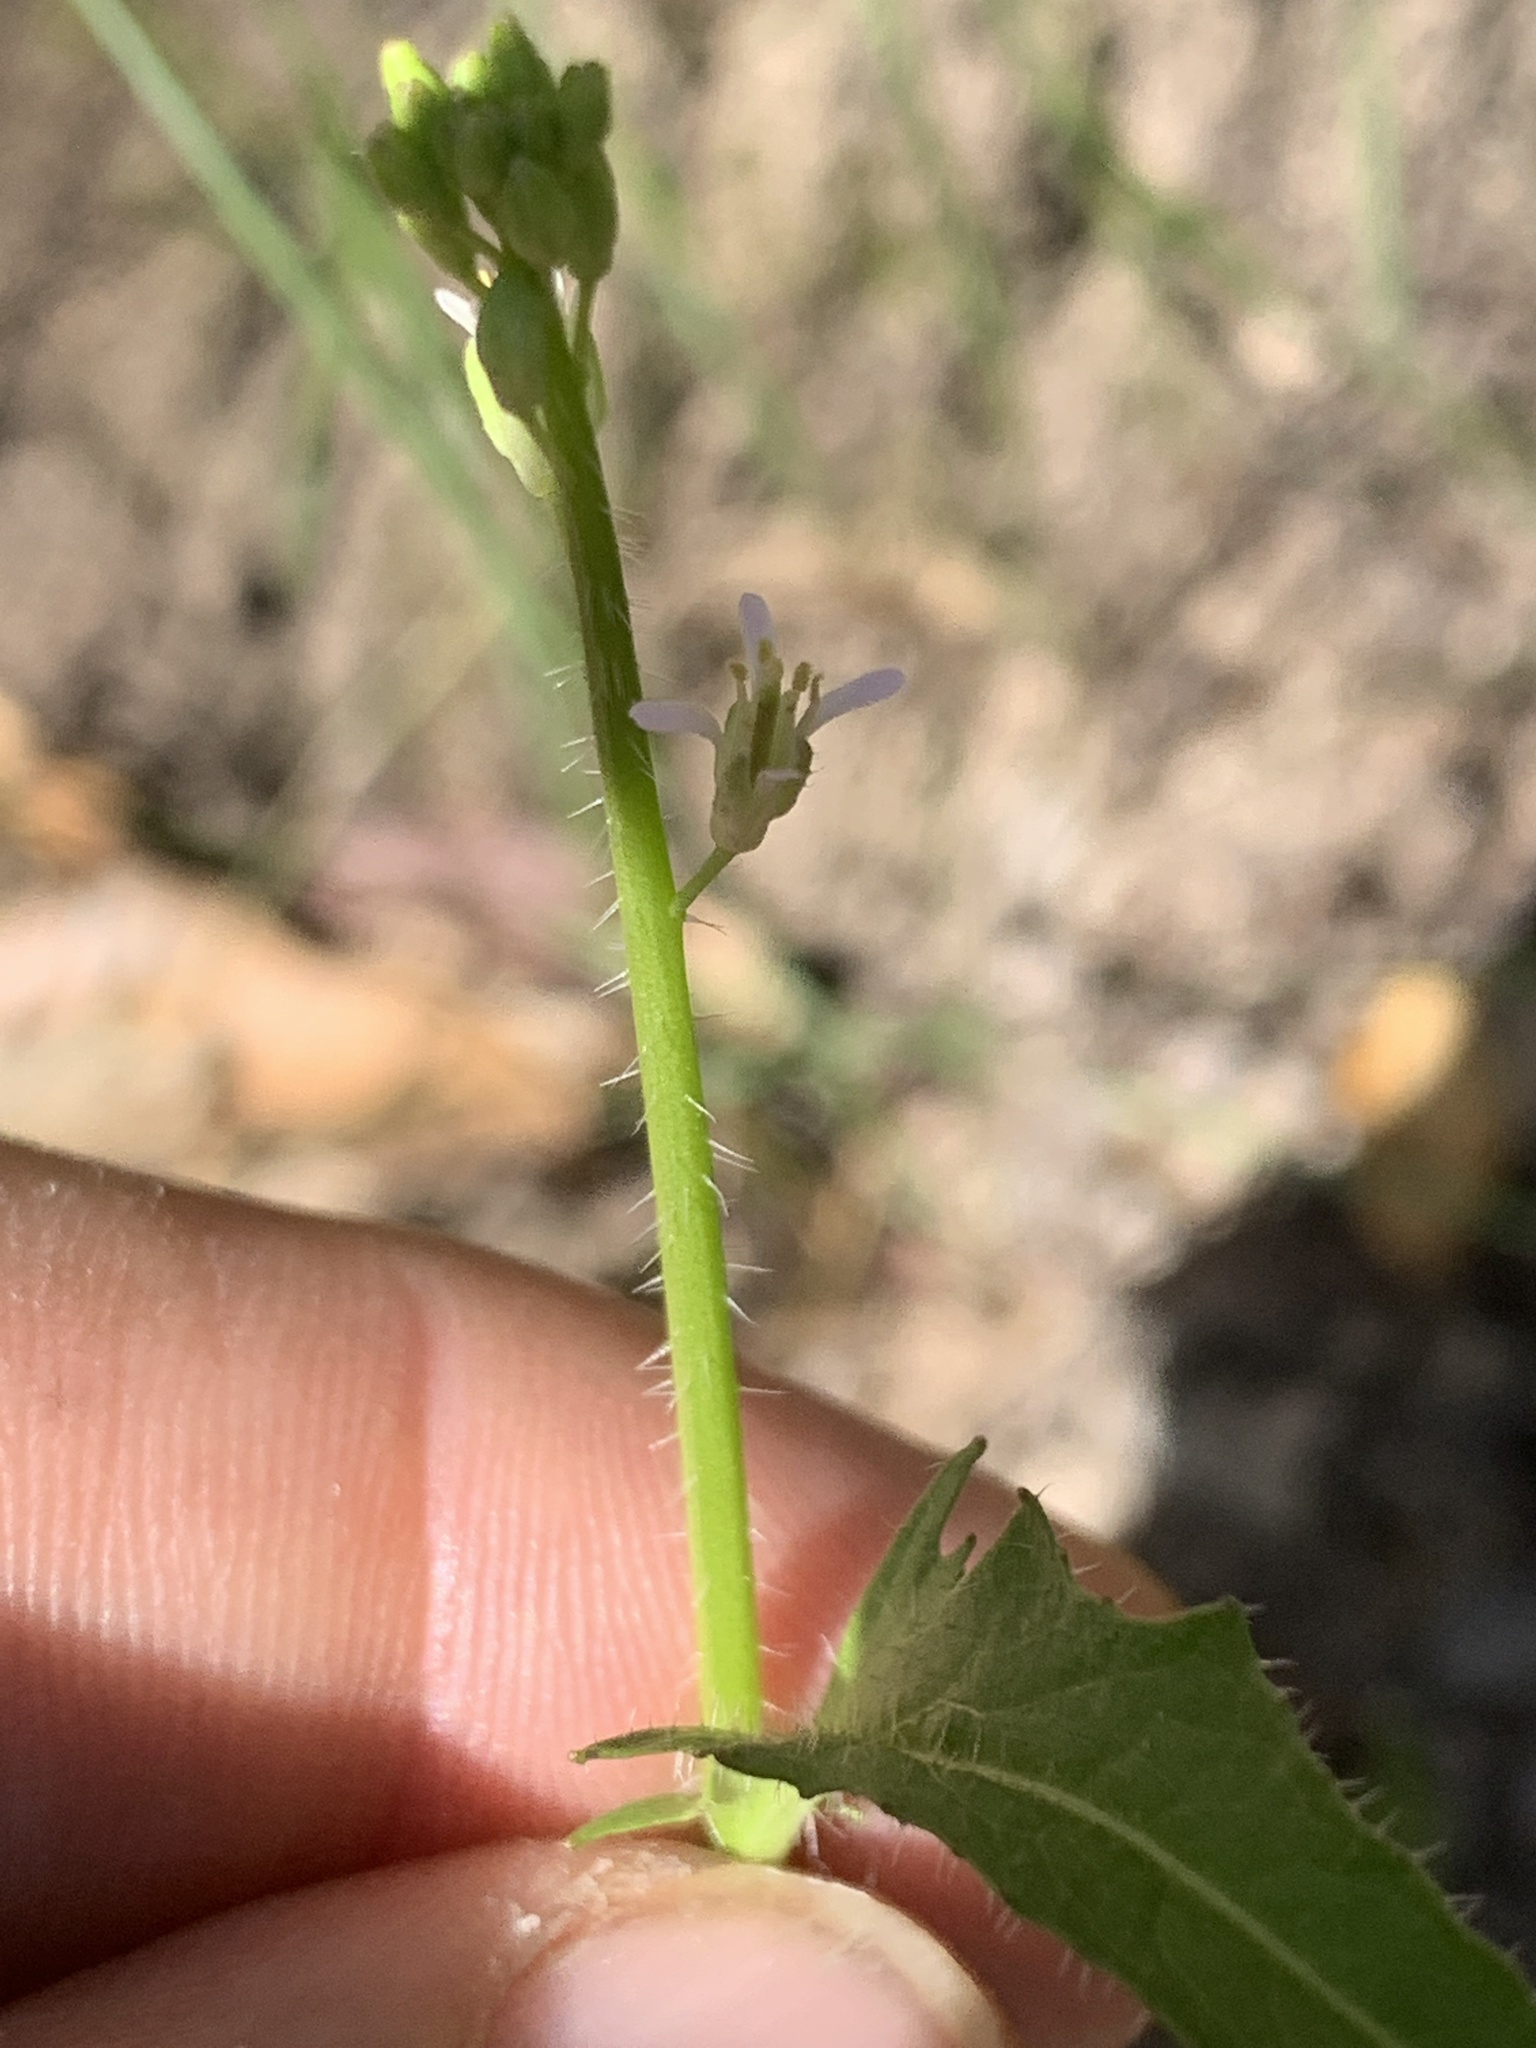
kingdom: Plantae
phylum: Tracheophyta
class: Magnoliopsida
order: Brassicales
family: Brassicaceae
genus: Streptanthus
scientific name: Streptanthus lasiophyllus
